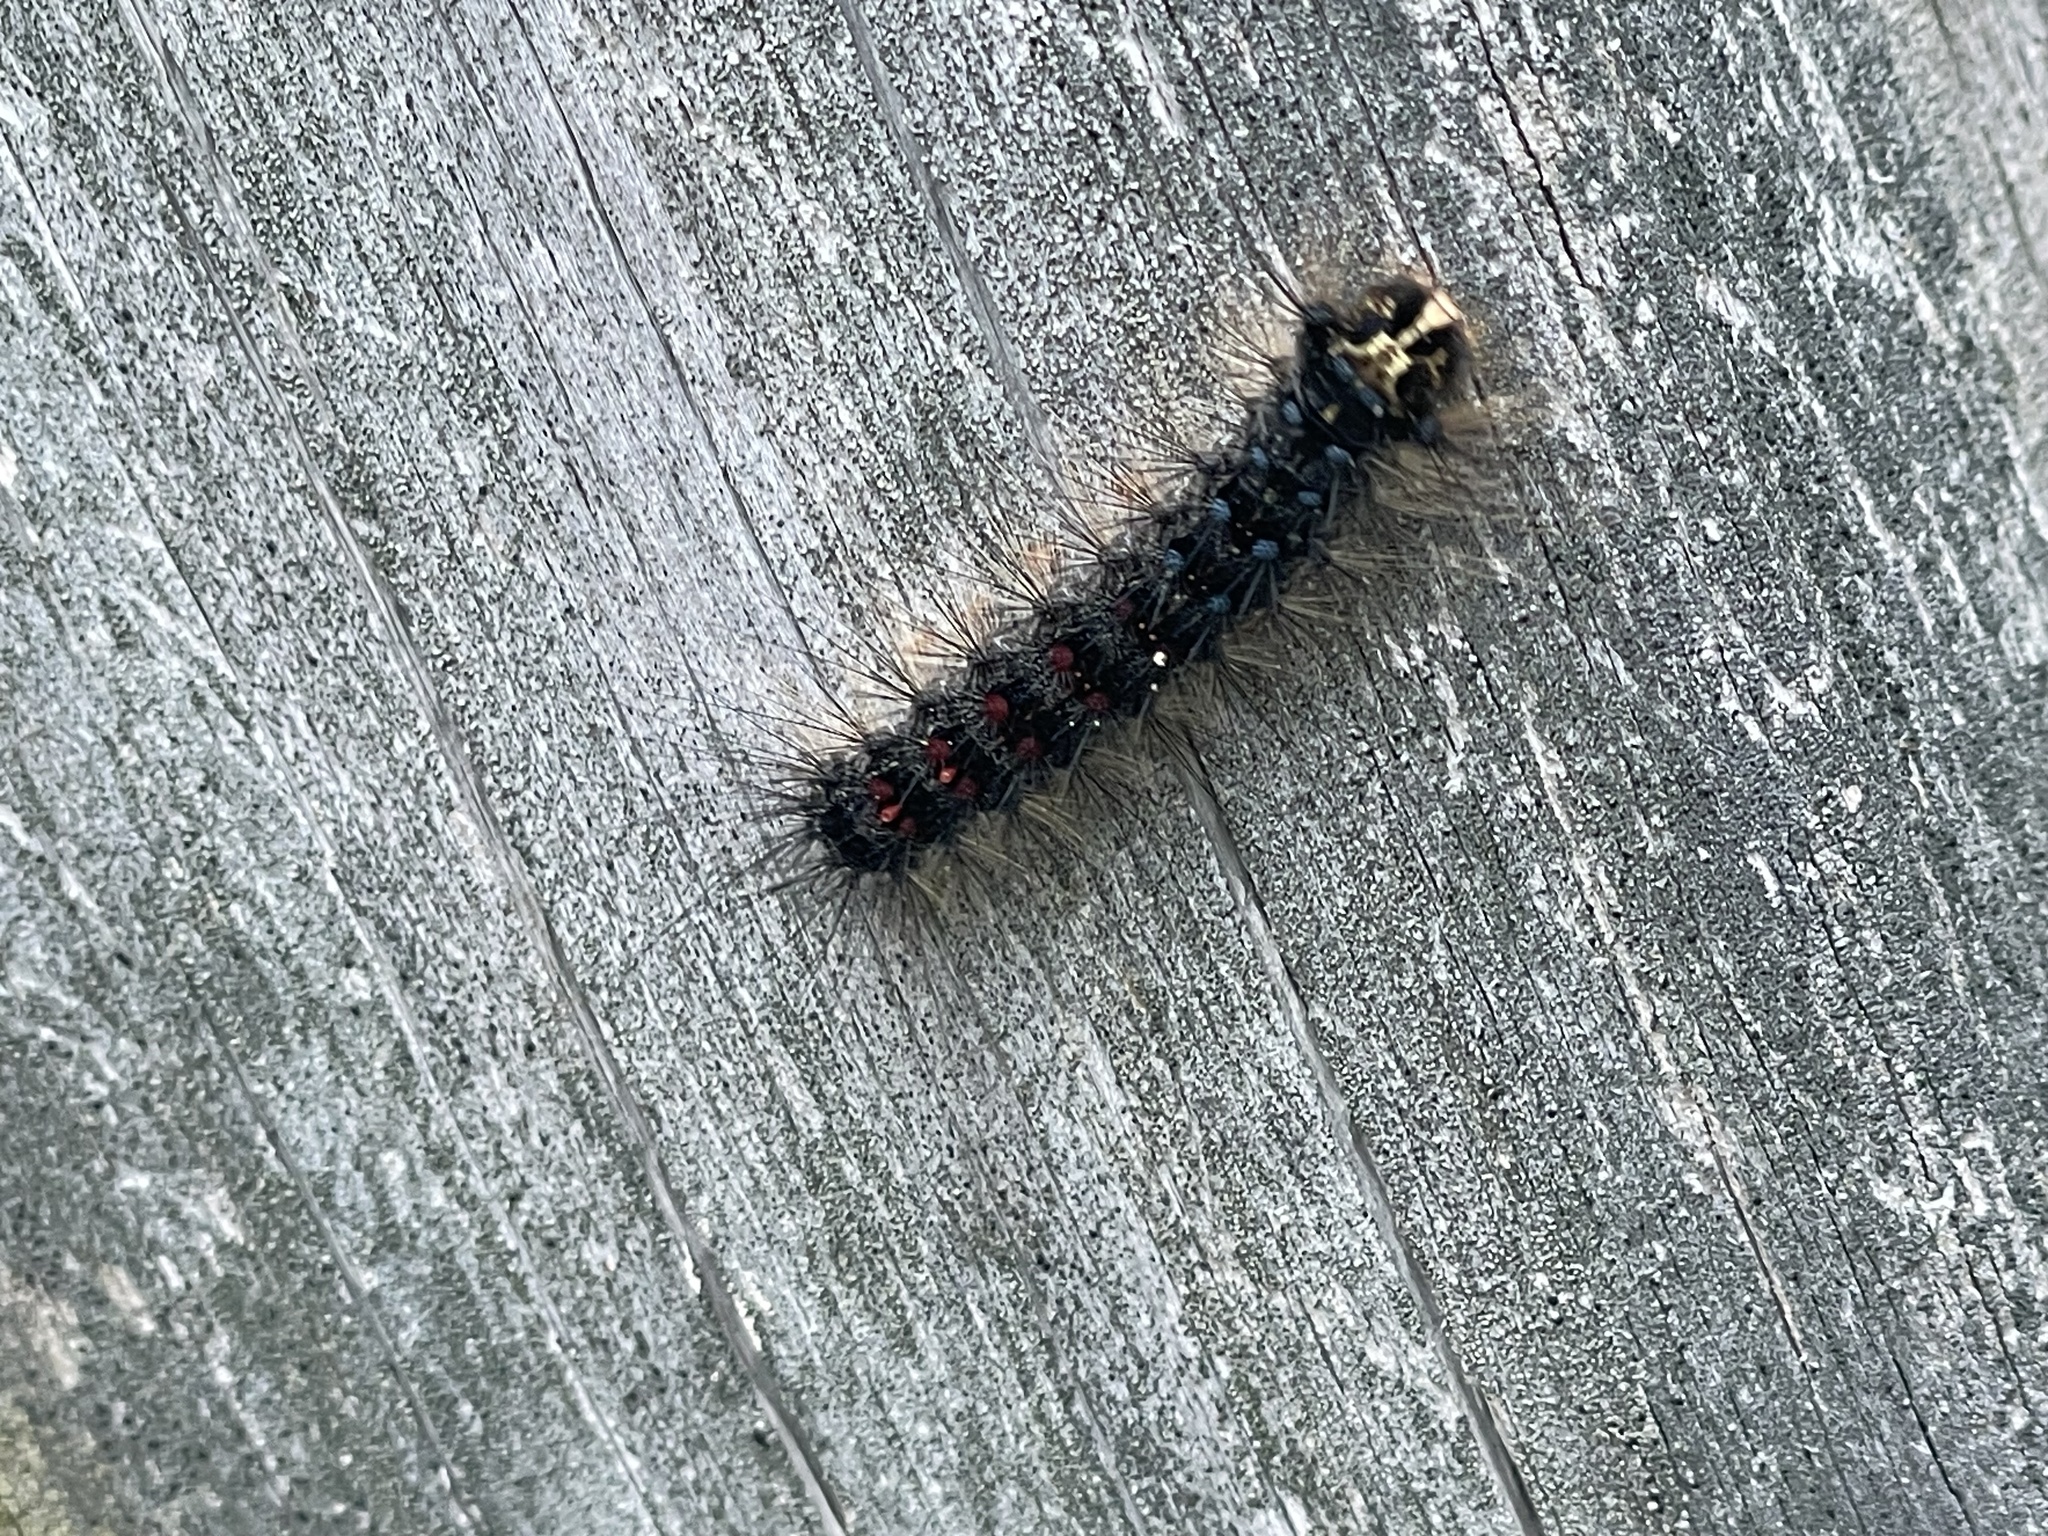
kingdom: Animalia
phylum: Arthropoda
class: Insecta
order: Lepidoptera
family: Erebidae
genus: Lymantria
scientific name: Lymantria dispar
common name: Gypsy moth
